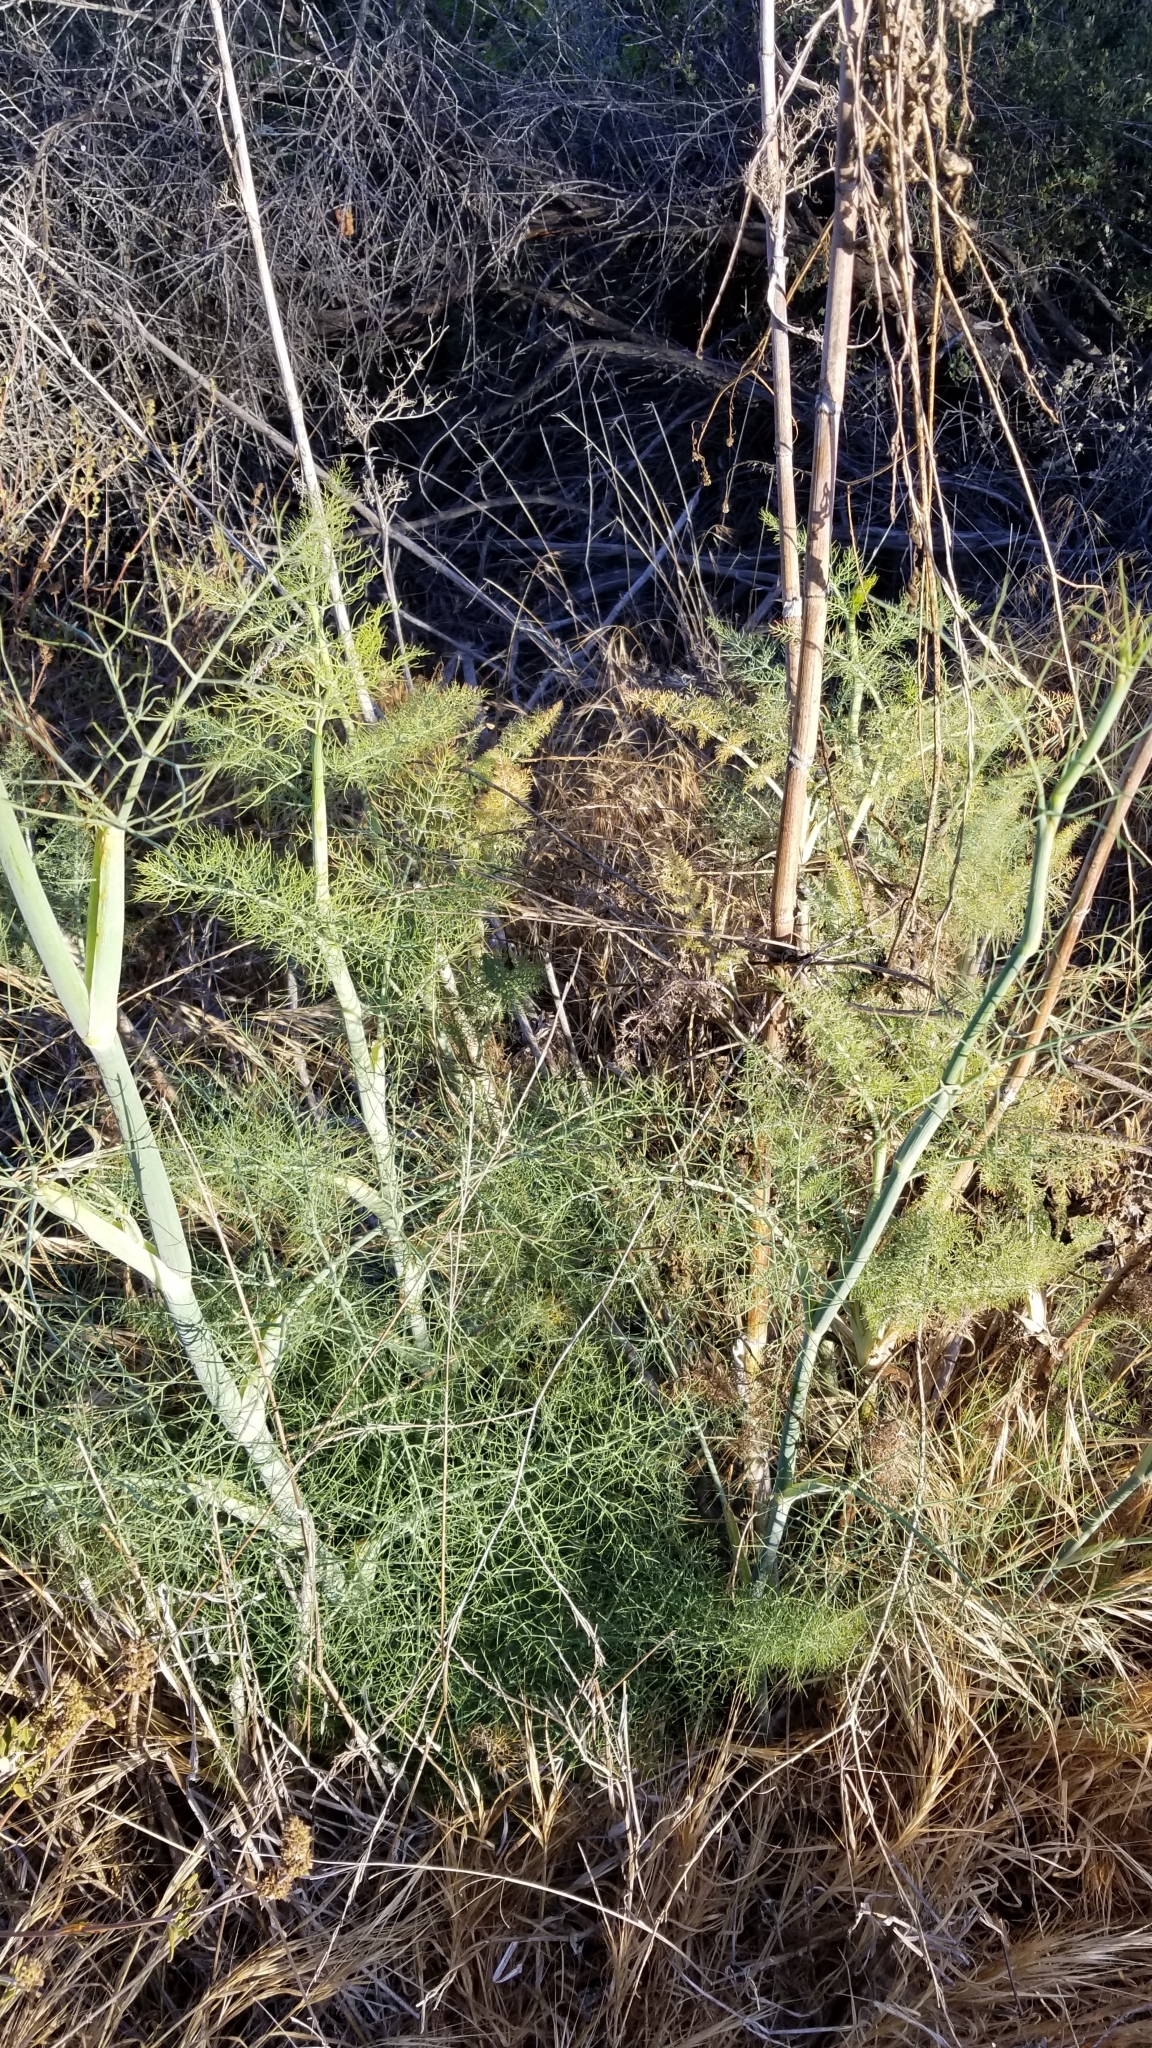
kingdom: Plantae
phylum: Tracheophyta
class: Magnoliopsida
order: Apiales
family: Apiaceae
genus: Foeniculum
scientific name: Foeniculum vulgare
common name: Fennel
